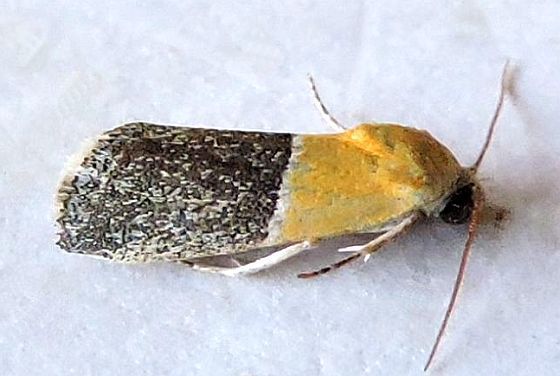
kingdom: Animalia
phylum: Arthropoda
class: Insecta
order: Lepidoptera
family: Noctuidae
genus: Acontia
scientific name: Acontia clausula
